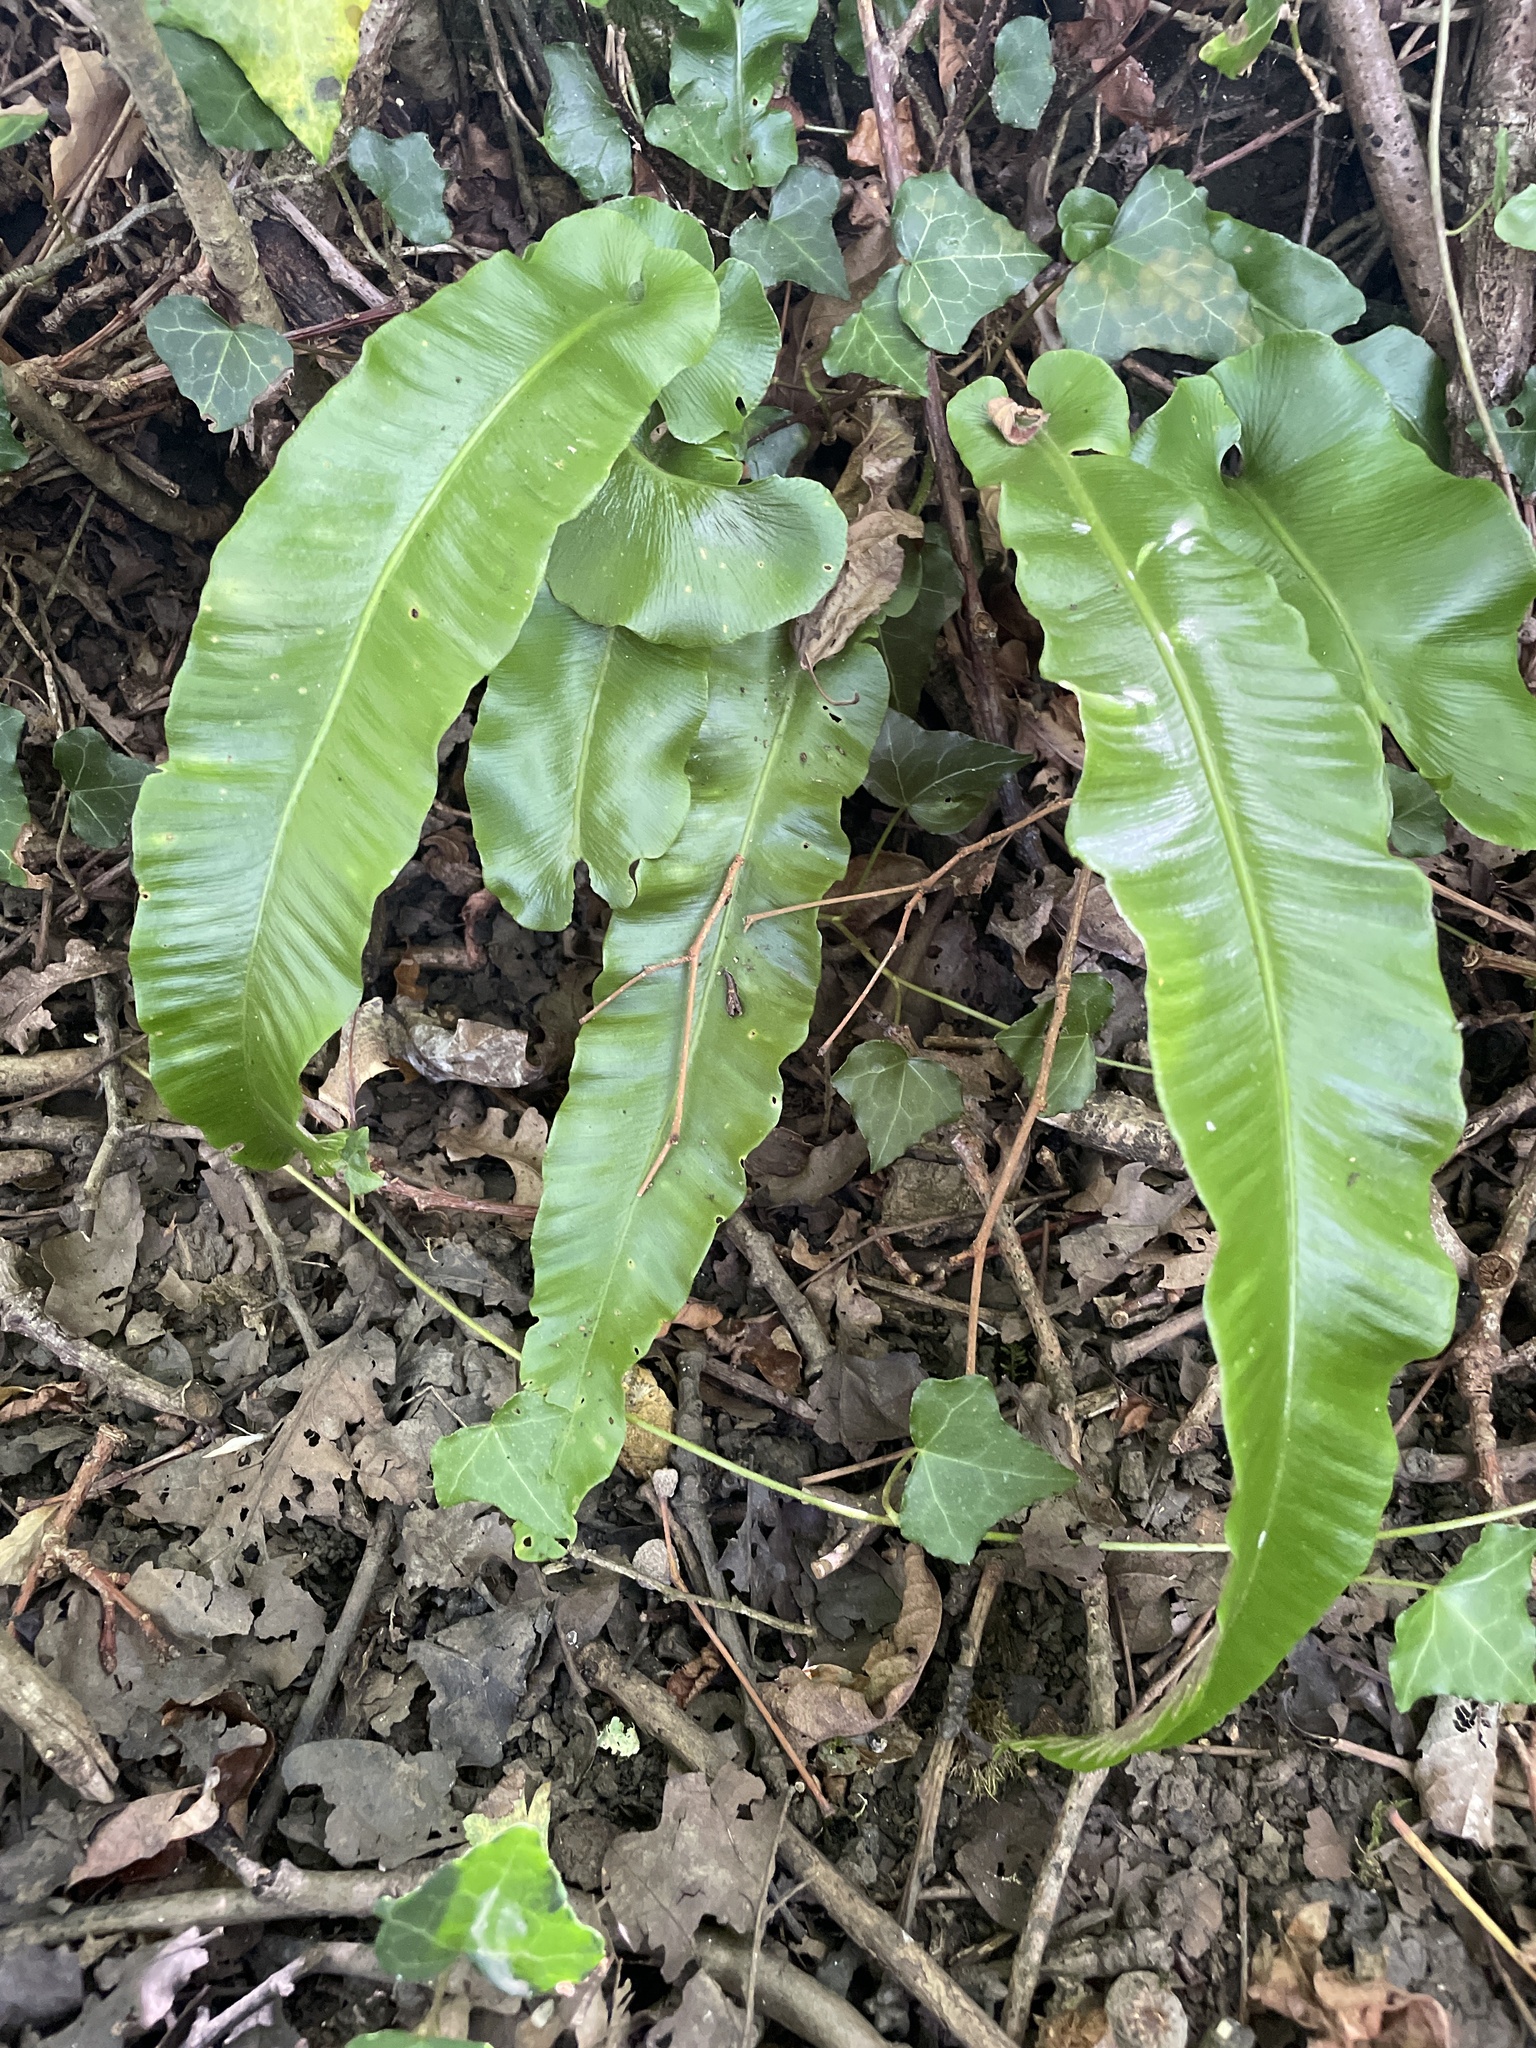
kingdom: Plantae
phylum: Tracheophyta
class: Polypodiopsida
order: Polypodiales
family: Aspleniaceae
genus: Asplenium
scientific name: Asplenium scolopendrium
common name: Hart's-tongue fern
